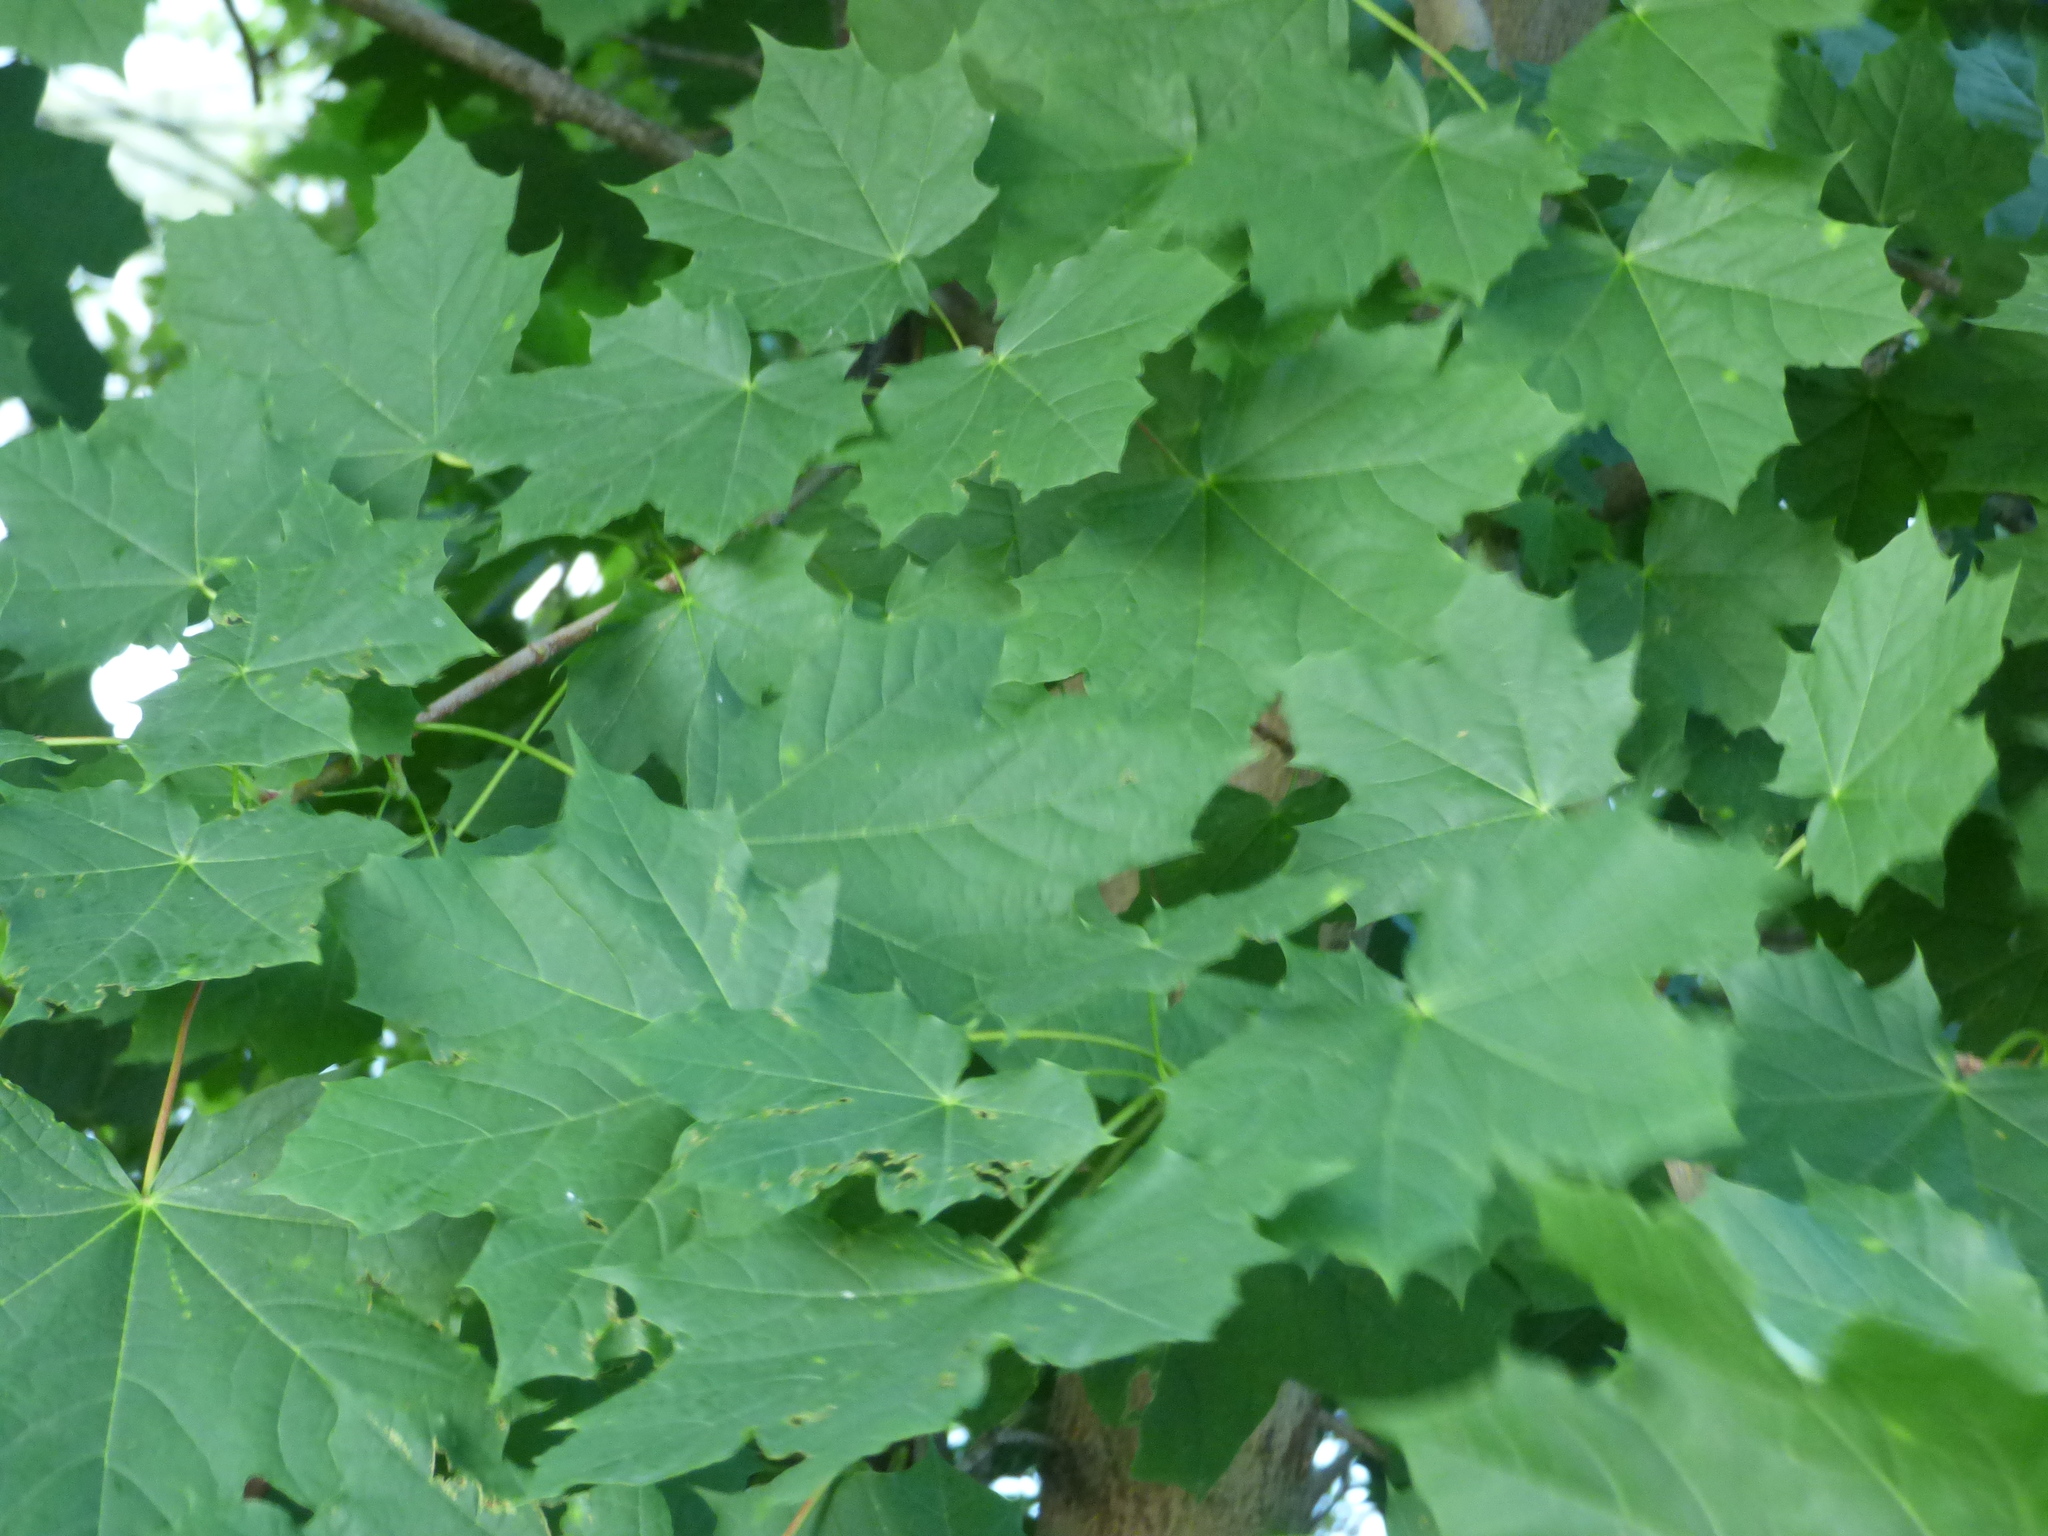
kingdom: Plantae
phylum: Tracheophyta
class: Magnoliopsida
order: Sapindales
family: Sapindaceae
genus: Acer
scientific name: Acer platanoides
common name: Norway maple
